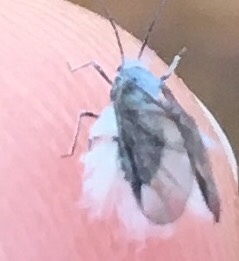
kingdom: Animalia
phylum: Arthropoda
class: Insecta
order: Hemiptera
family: Eriosomatidae
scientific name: Eriosomatidae
